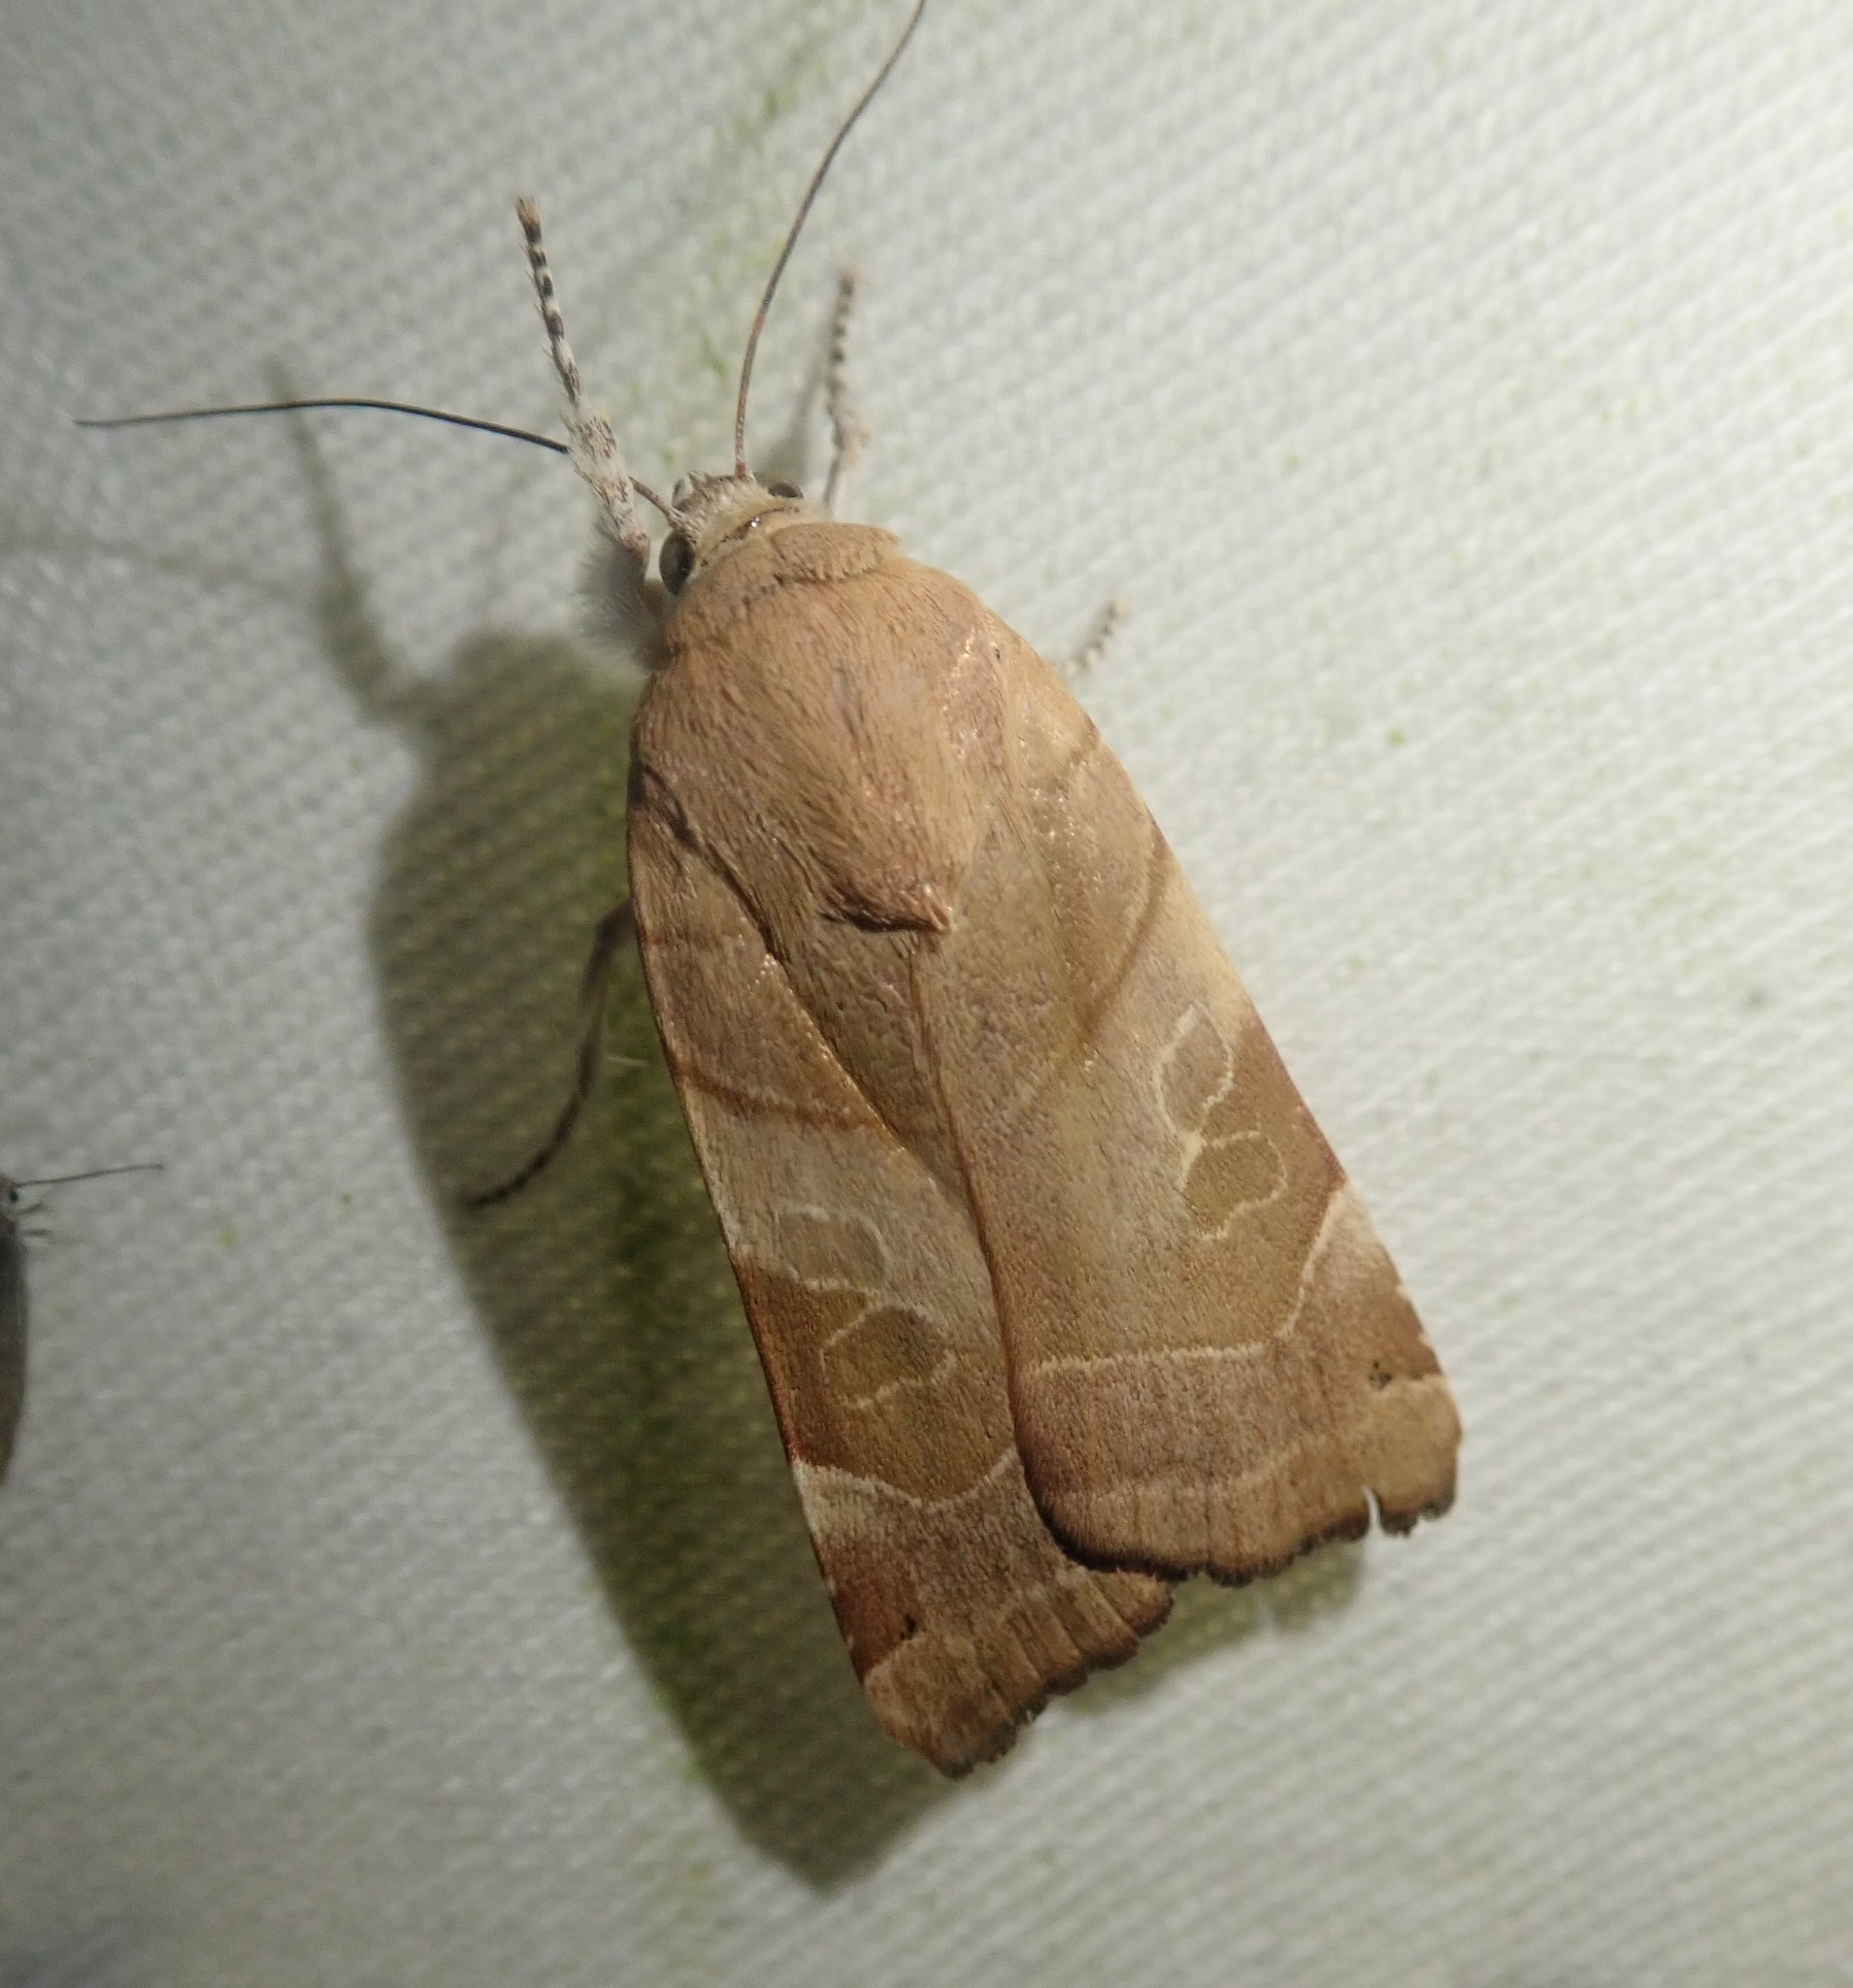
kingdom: Animalia
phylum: Arthropoda
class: Insecta
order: Lepidoptera
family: Noctuidae
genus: Noctua
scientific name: Noctua fimbriata
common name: Broad-bordered yellow underwing
